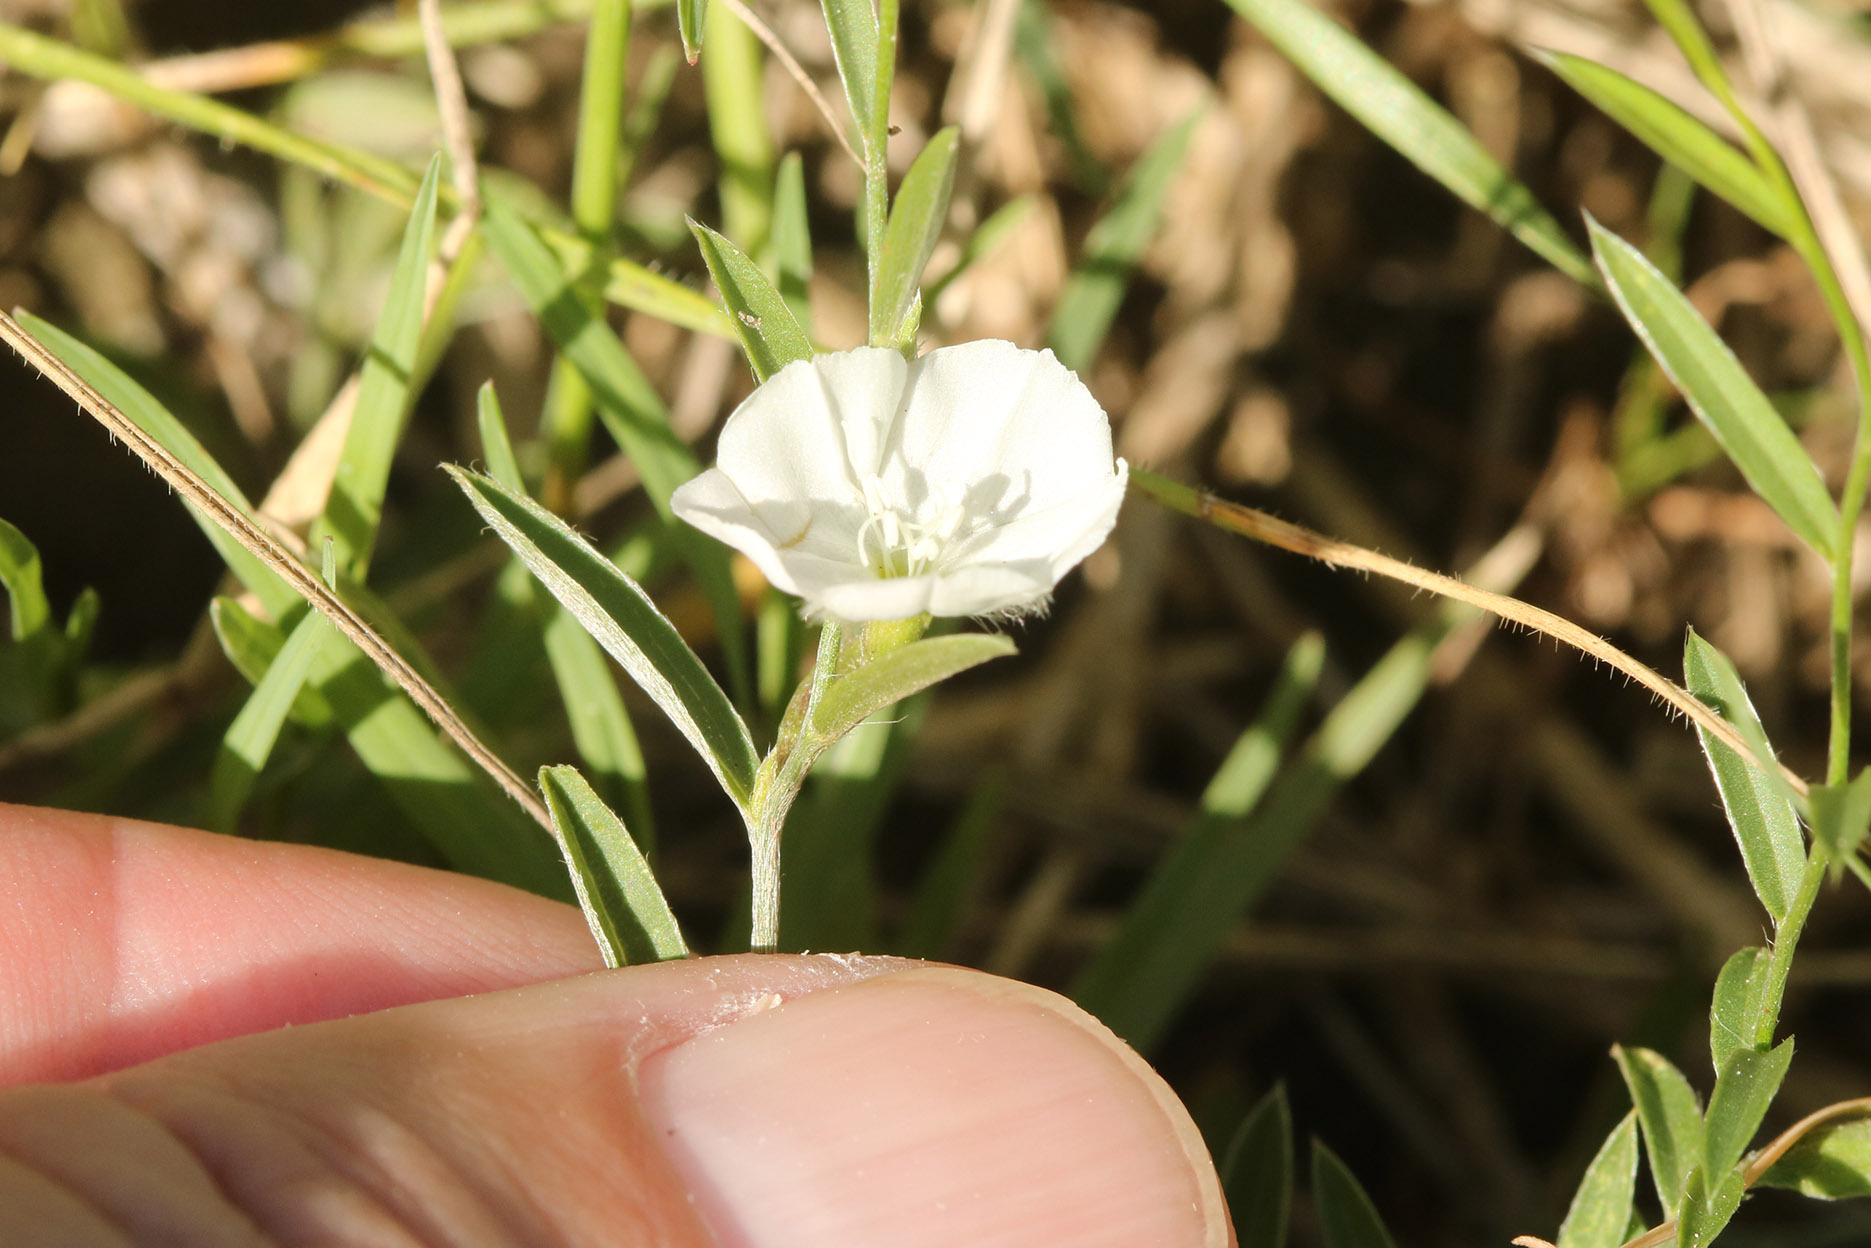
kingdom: Plantae
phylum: Tracheophyta
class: Magnoliopsida
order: Solanales
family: Convolvulaceae
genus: Evolvulus
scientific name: Evolvulus sericeus
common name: Blue dots
